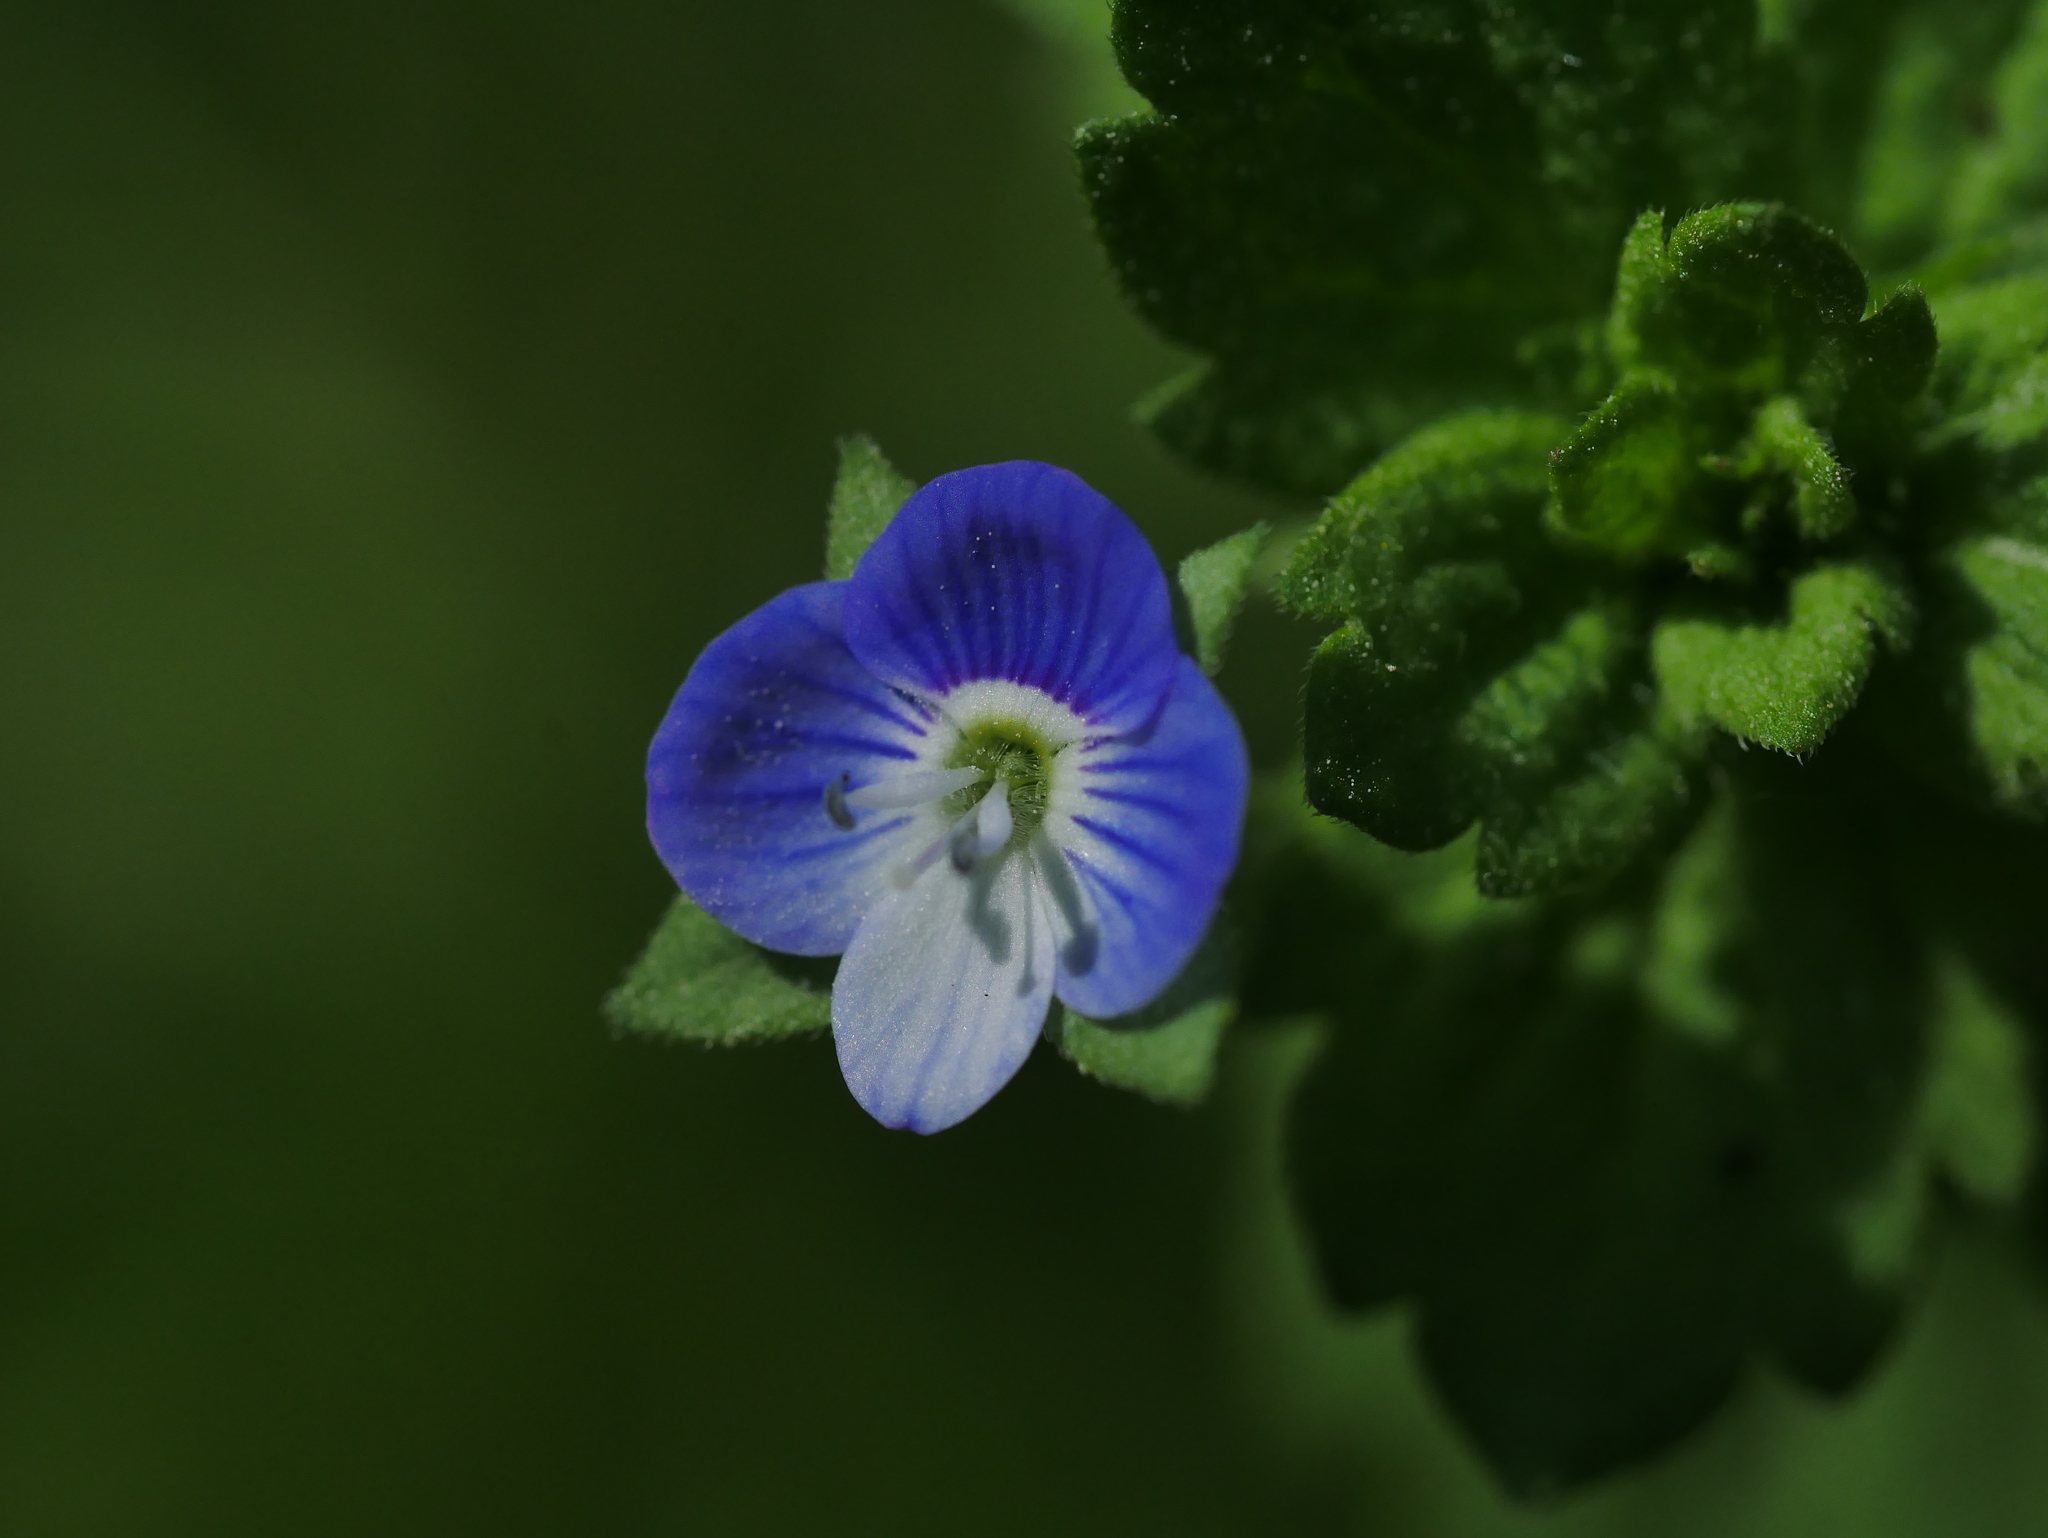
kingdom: Plantae
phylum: Tracheophyta
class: Magnoliopsida
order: Lamiales
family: Plantaginaceae
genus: Veronica
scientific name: Veronica persica
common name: Common field-speedwell
